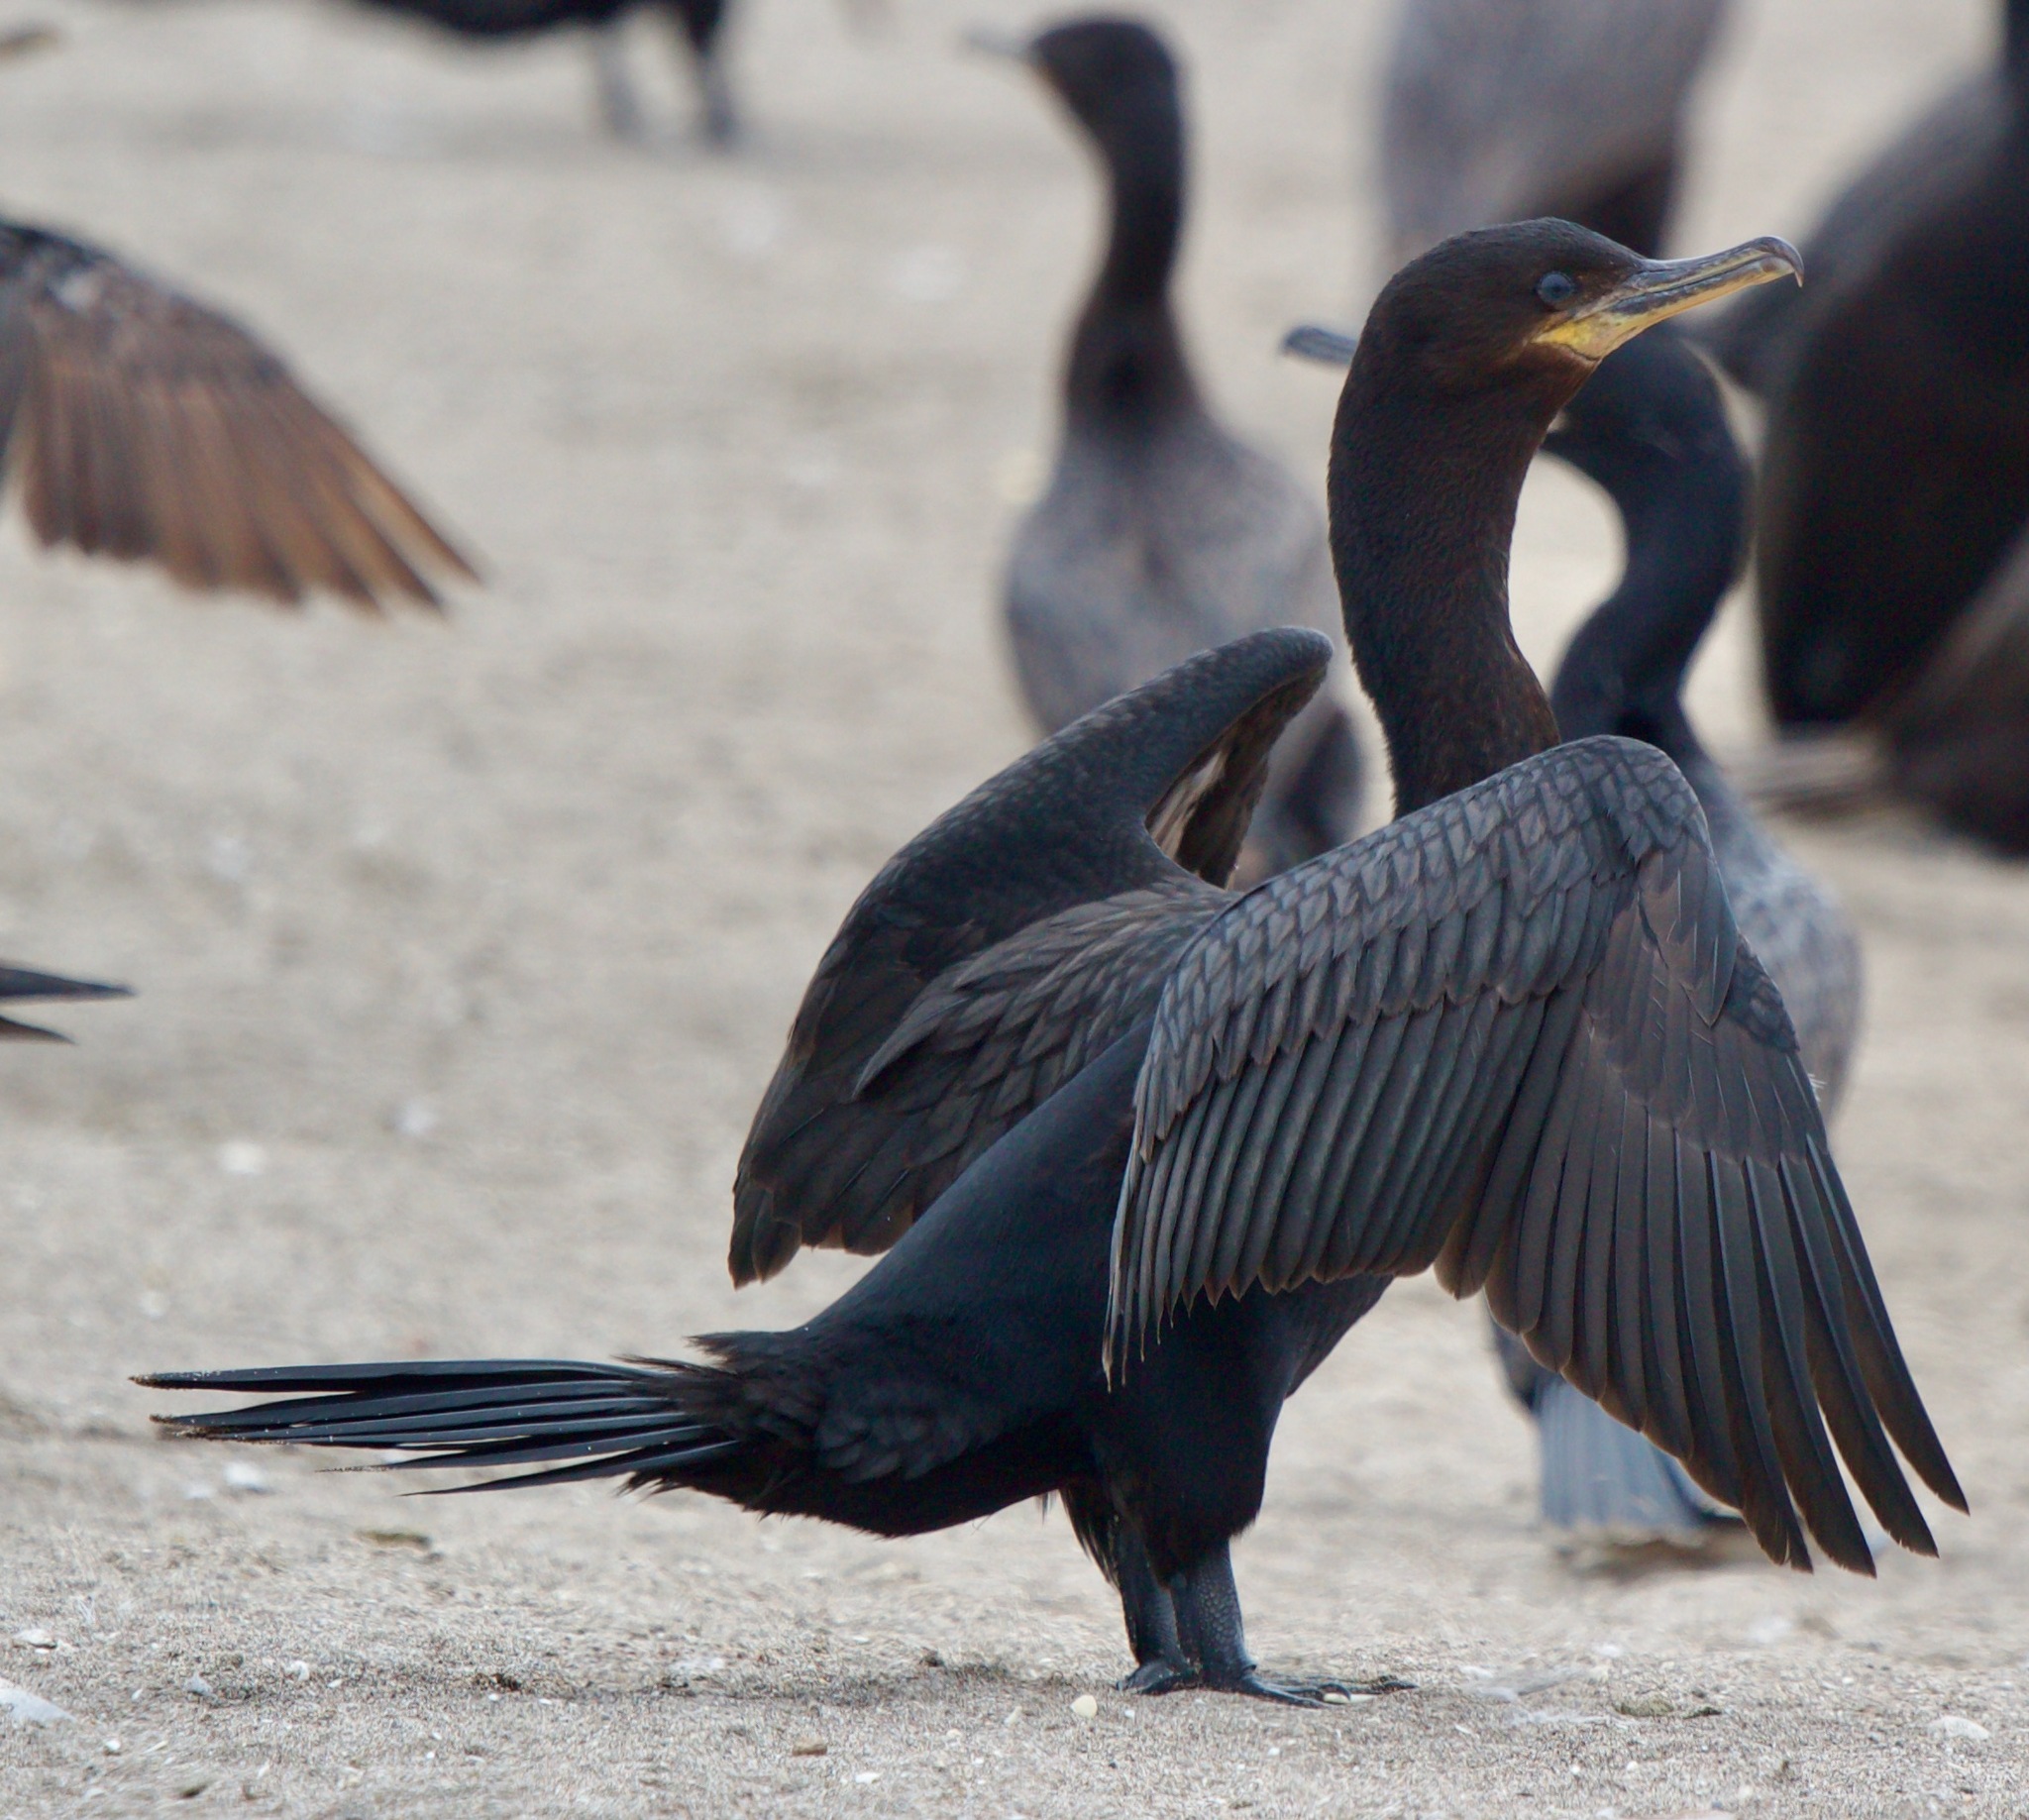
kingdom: Animalia
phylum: Chordata
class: Aves
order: Suliformes
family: Phalacrocoracidae
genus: Phalacrocorax
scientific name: Phalacrocorax brasilianus
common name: Neotropic cormorant
